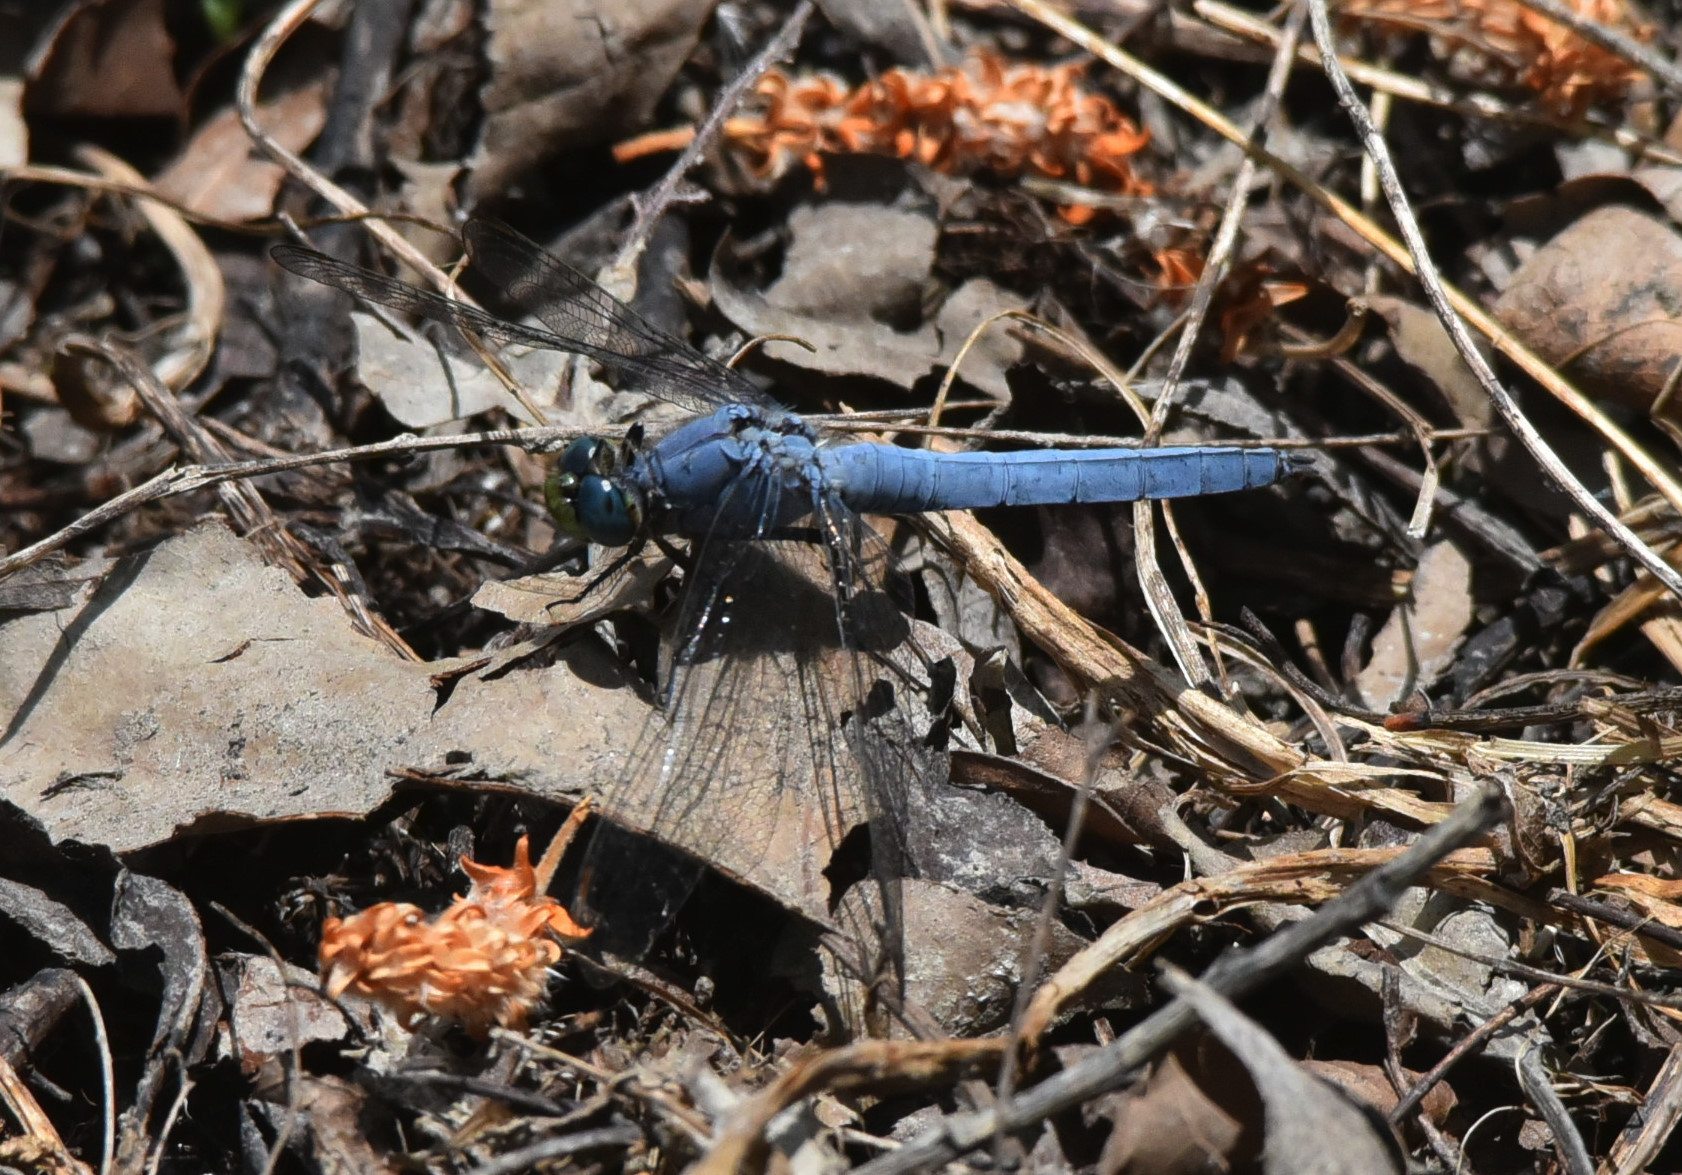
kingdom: Animalia
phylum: Arthropoda
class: Insecta
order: Odonata
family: Libellulidae
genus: Erythemis
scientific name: Erythemis collocata
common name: Western pondhawk
